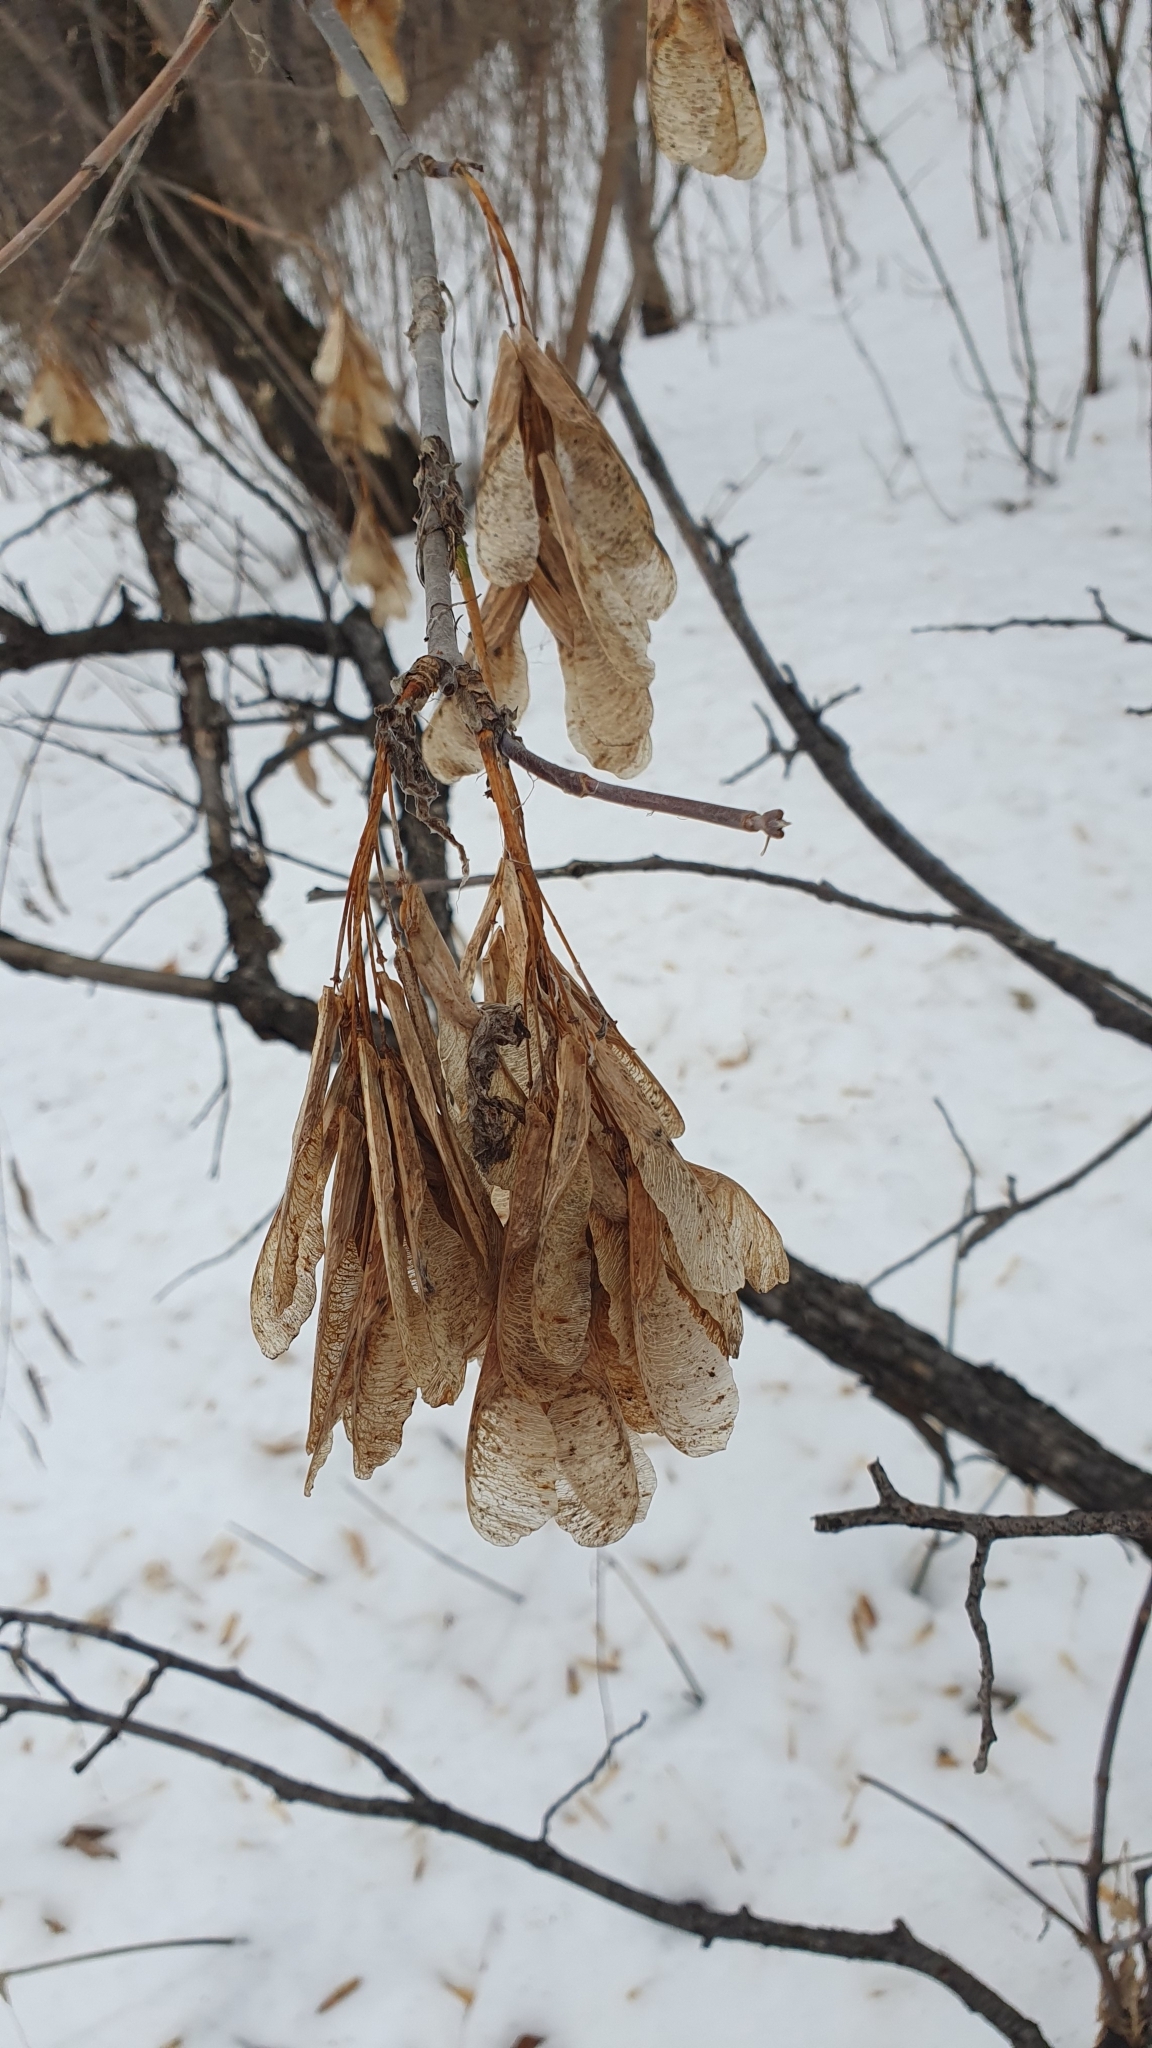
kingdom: Plantae
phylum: Tracheophyta
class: Magnoliopsida
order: Sapindales
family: Sapindaceae
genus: Acer
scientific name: Acer negundo
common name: Ashleaf maple
